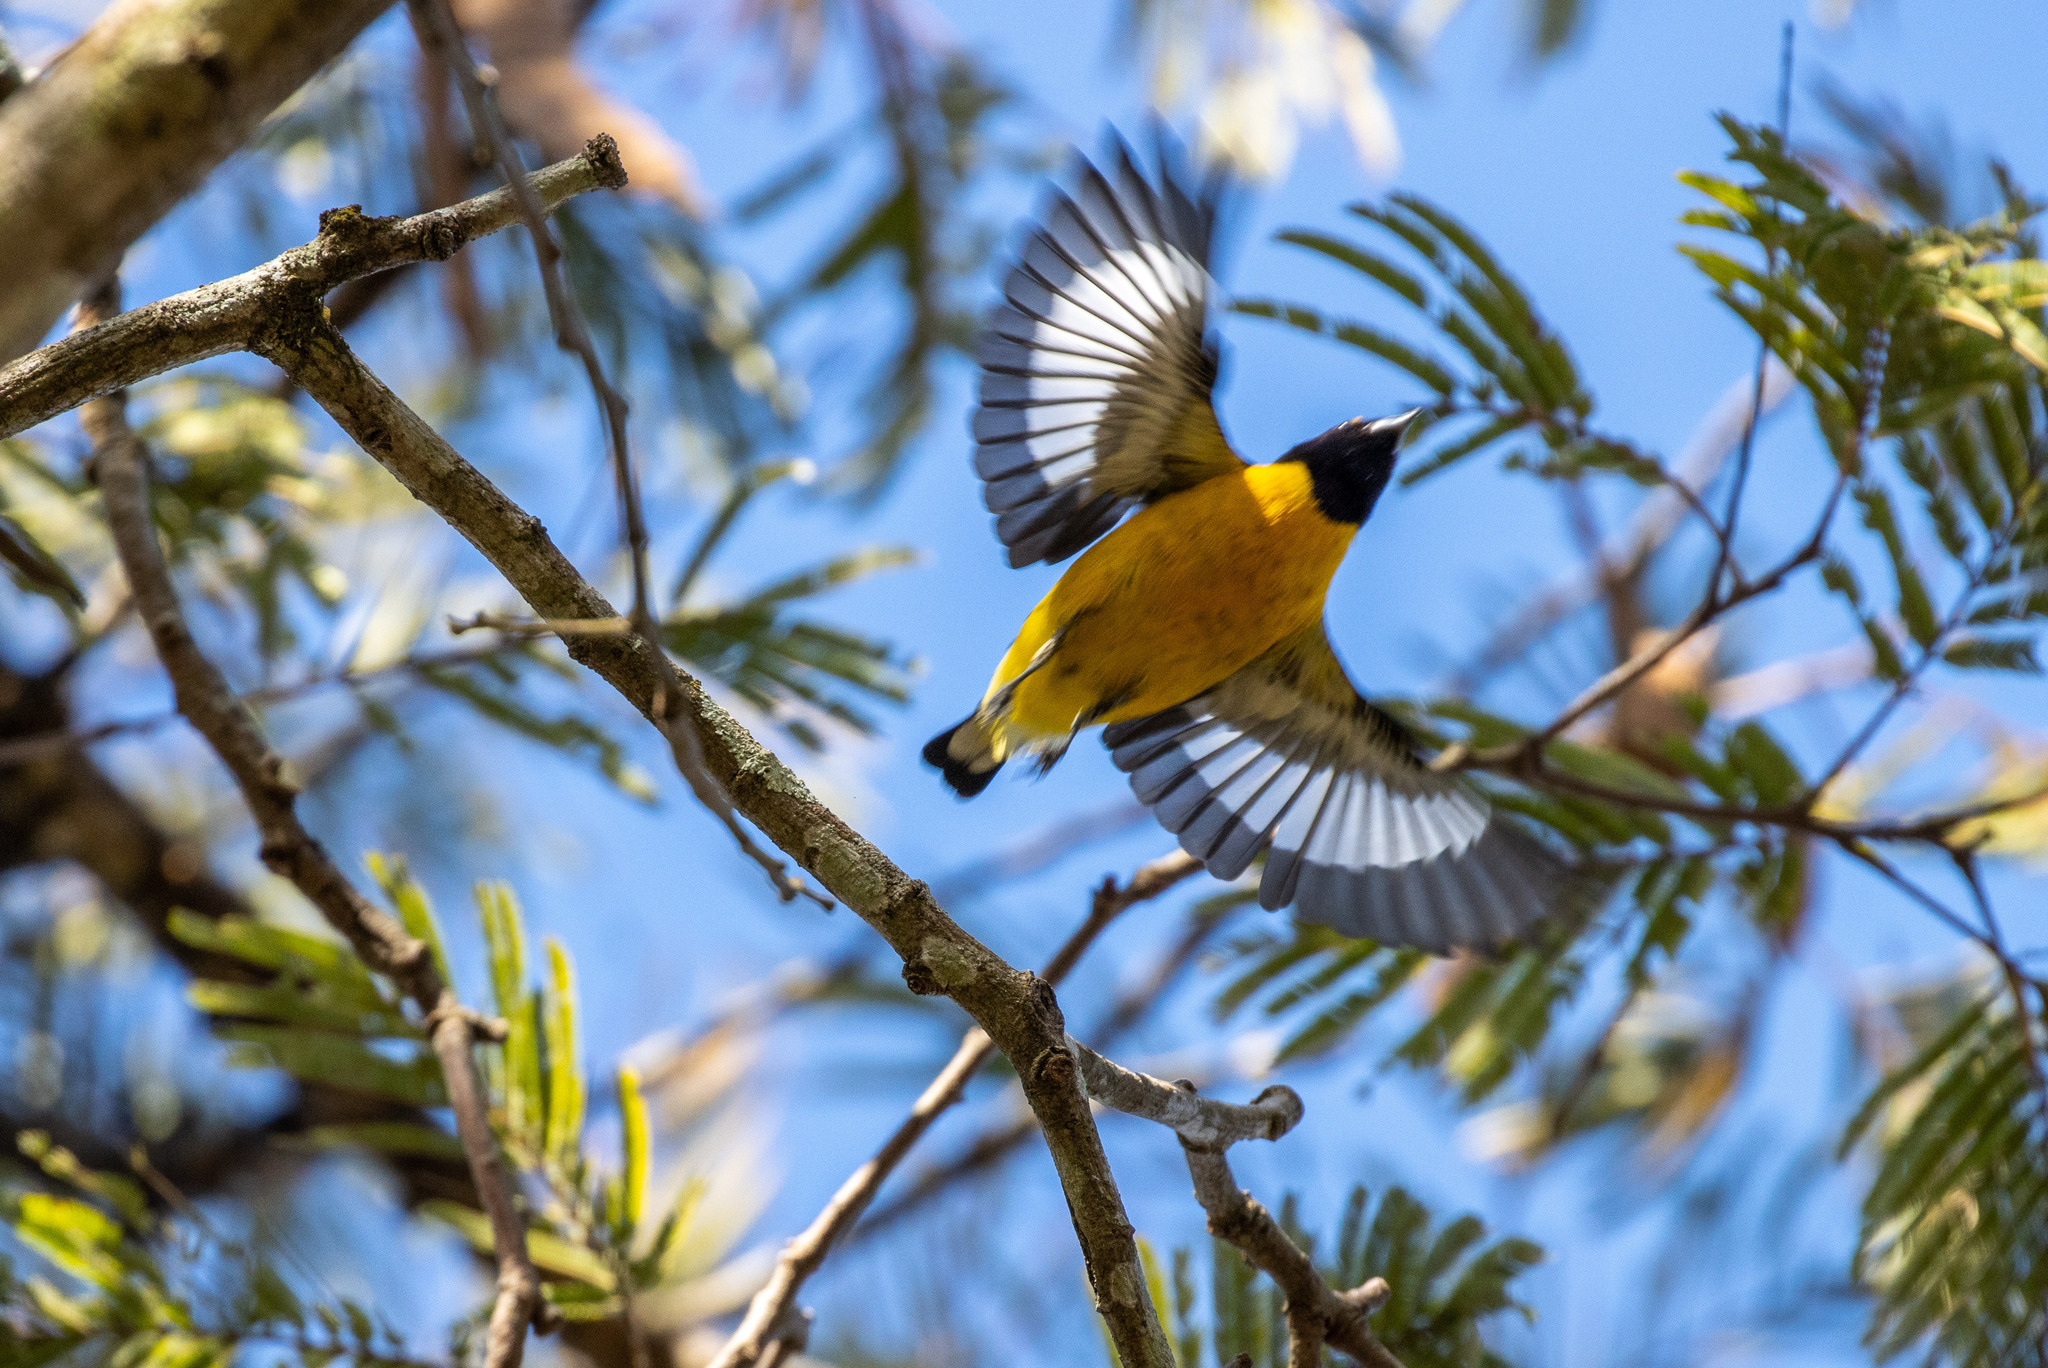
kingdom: Animalia
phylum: Chordata
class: Aves
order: Passeriformes
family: Fringillidae
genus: Euphonia
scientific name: Euphonia chlorotica
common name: Purple-throated euphonia
